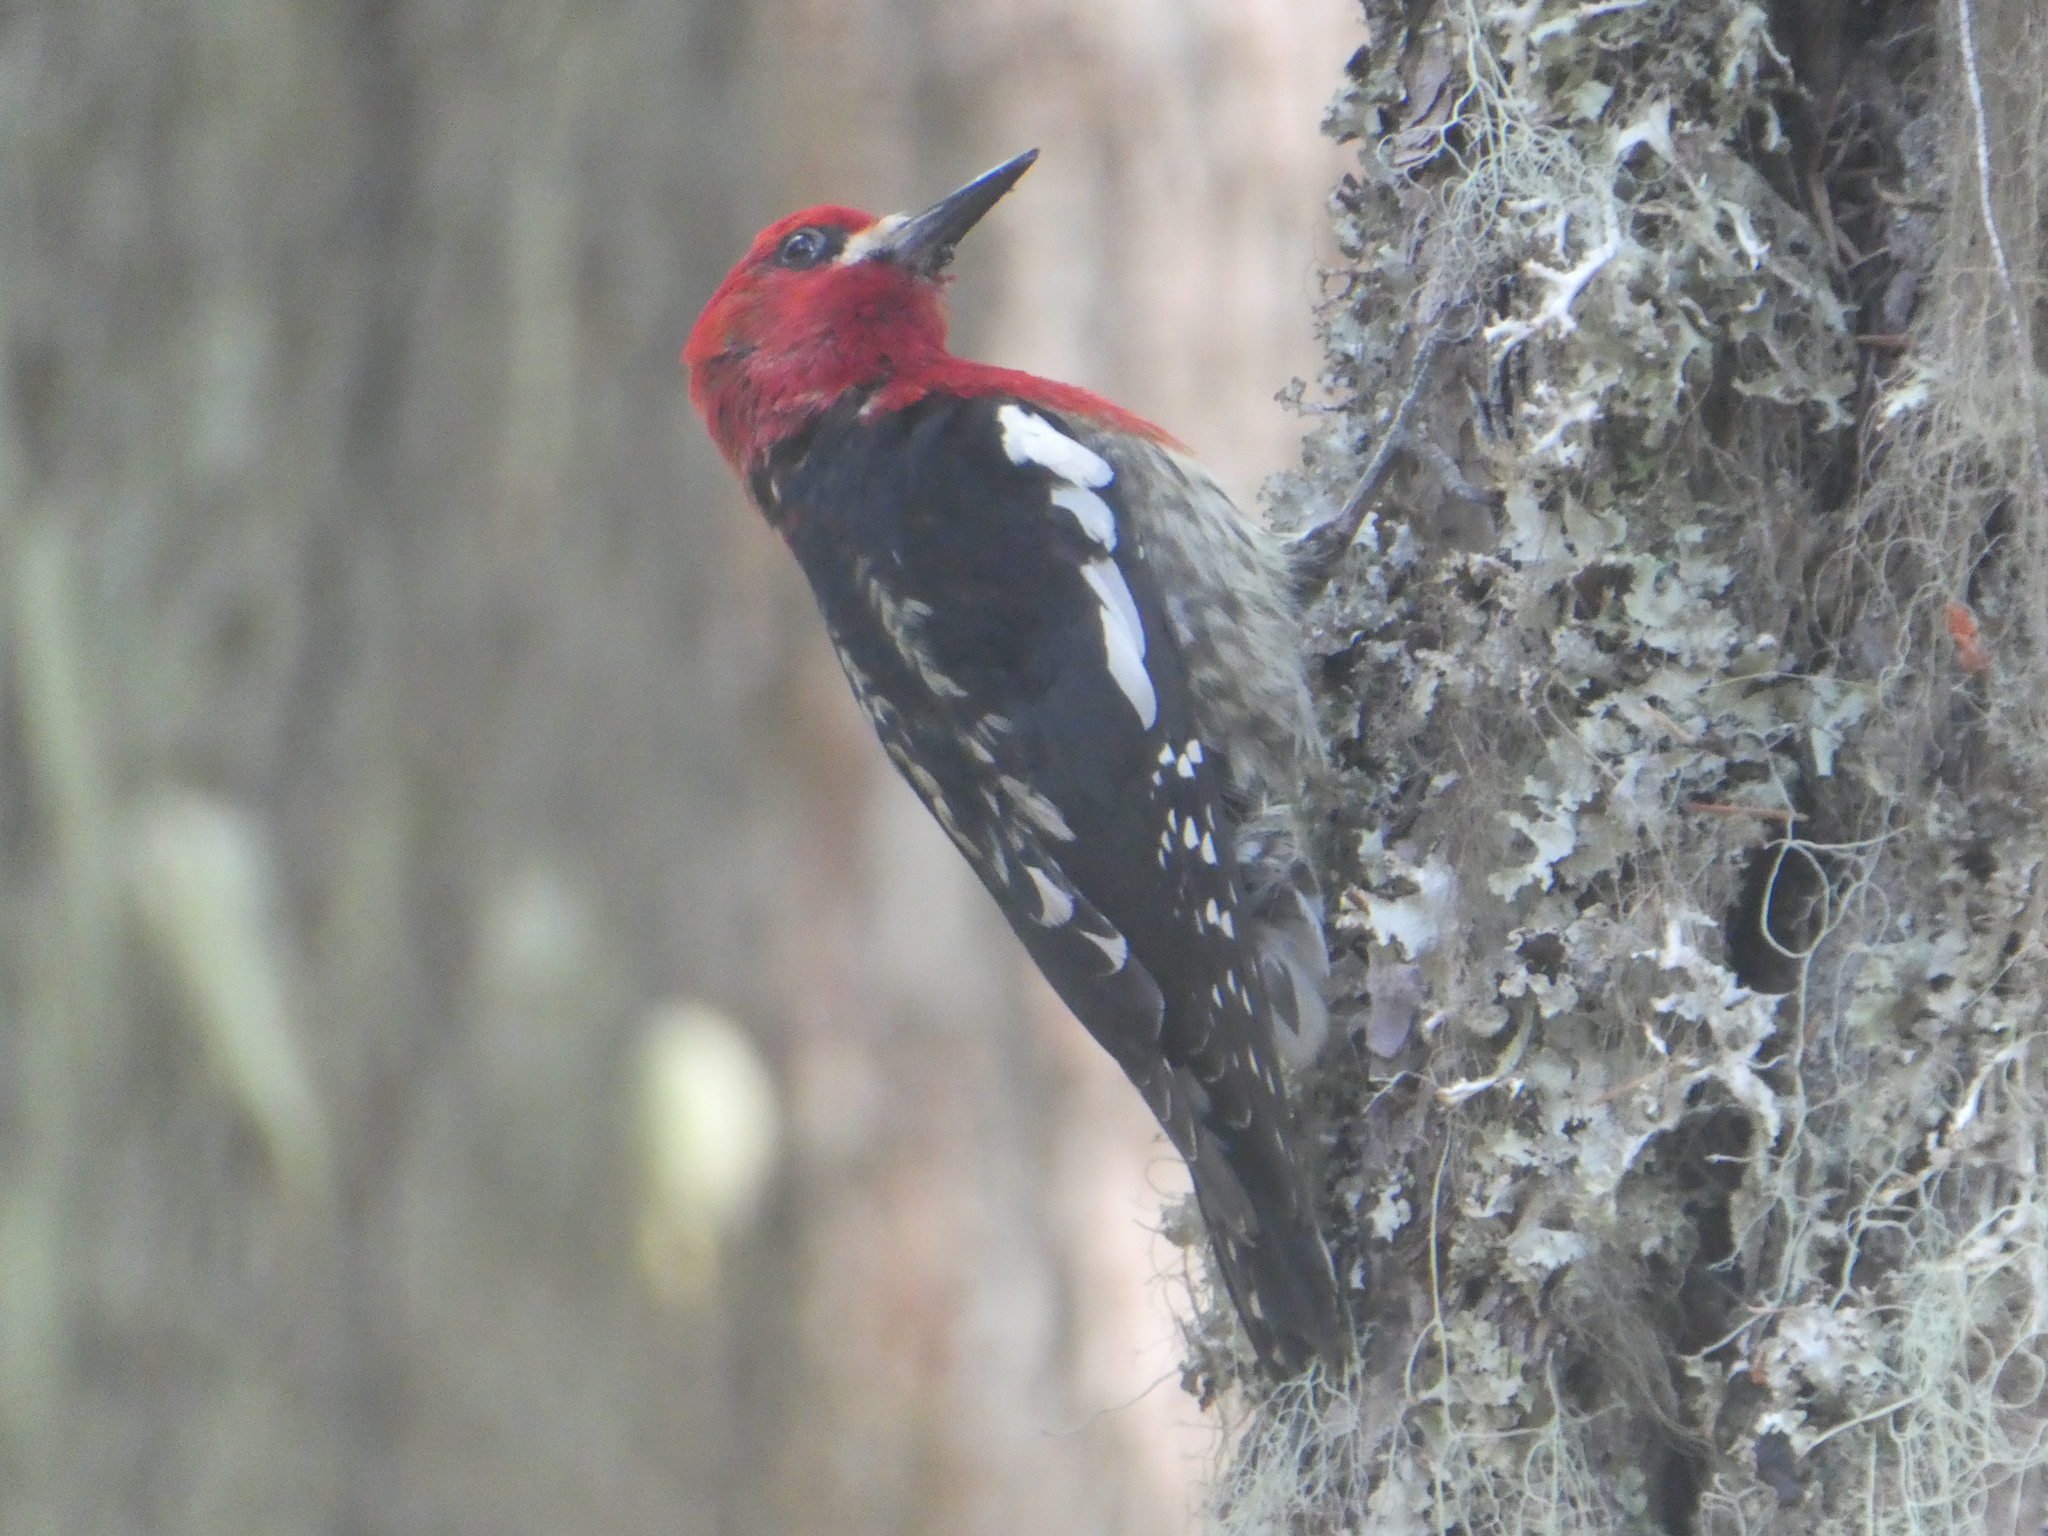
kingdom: Animalia
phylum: Chordata
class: Aves
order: Piciformes
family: Picidae
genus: Sphyrapicus
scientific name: Sphyrapicus ruber
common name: Red-breasted sapsucker
